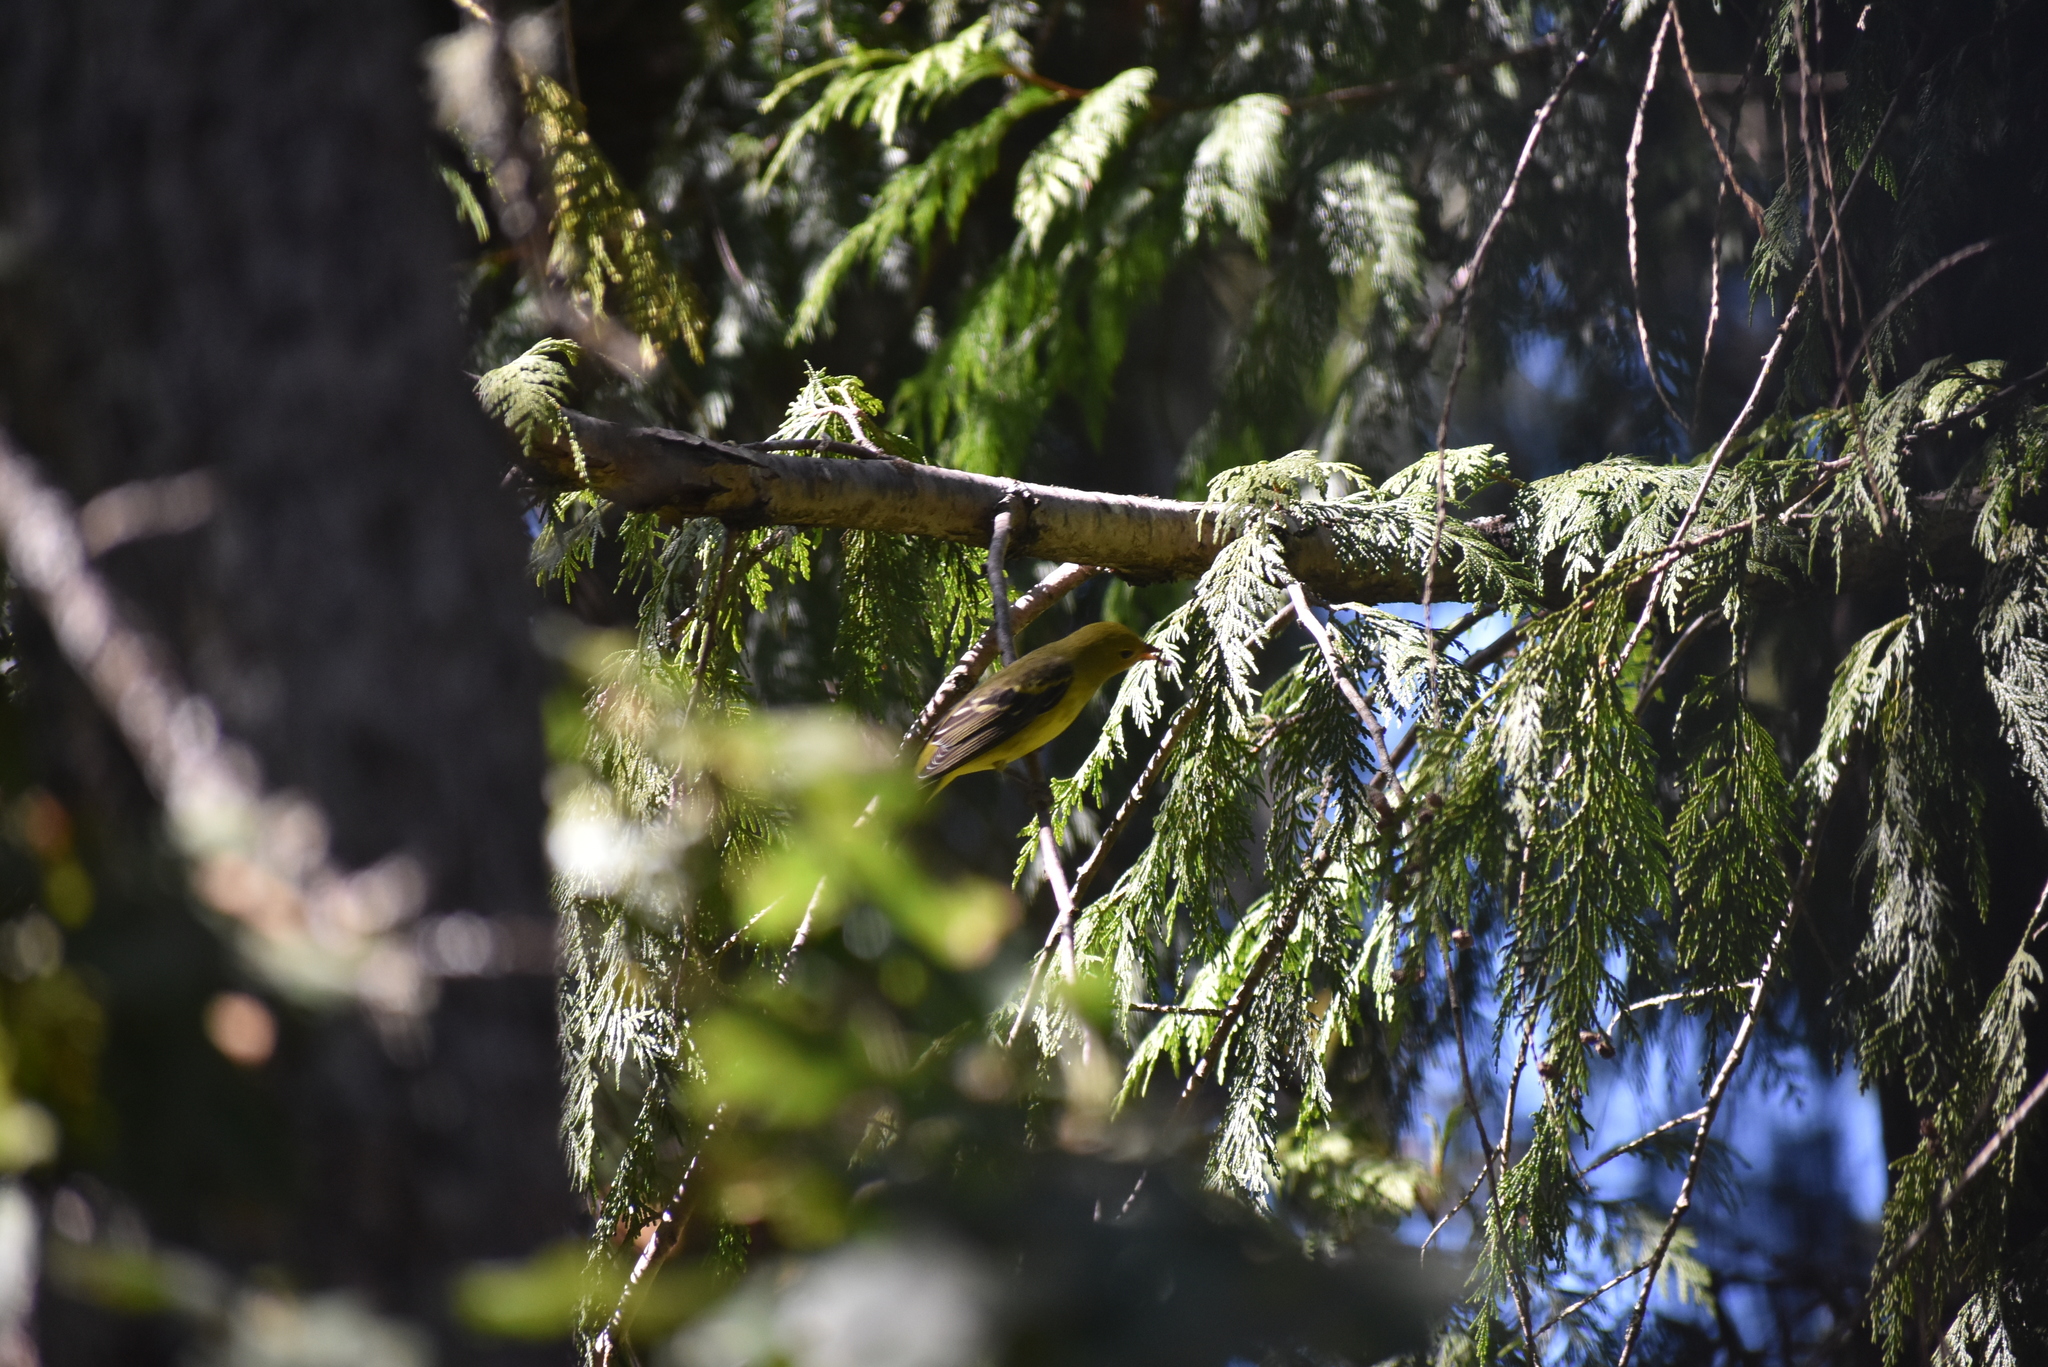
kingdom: Animalia
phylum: Chordata
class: Aves
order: Passeriformes
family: Cardinalidae
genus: Piranga
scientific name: Piranga ludoviciana
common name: Western tanager
